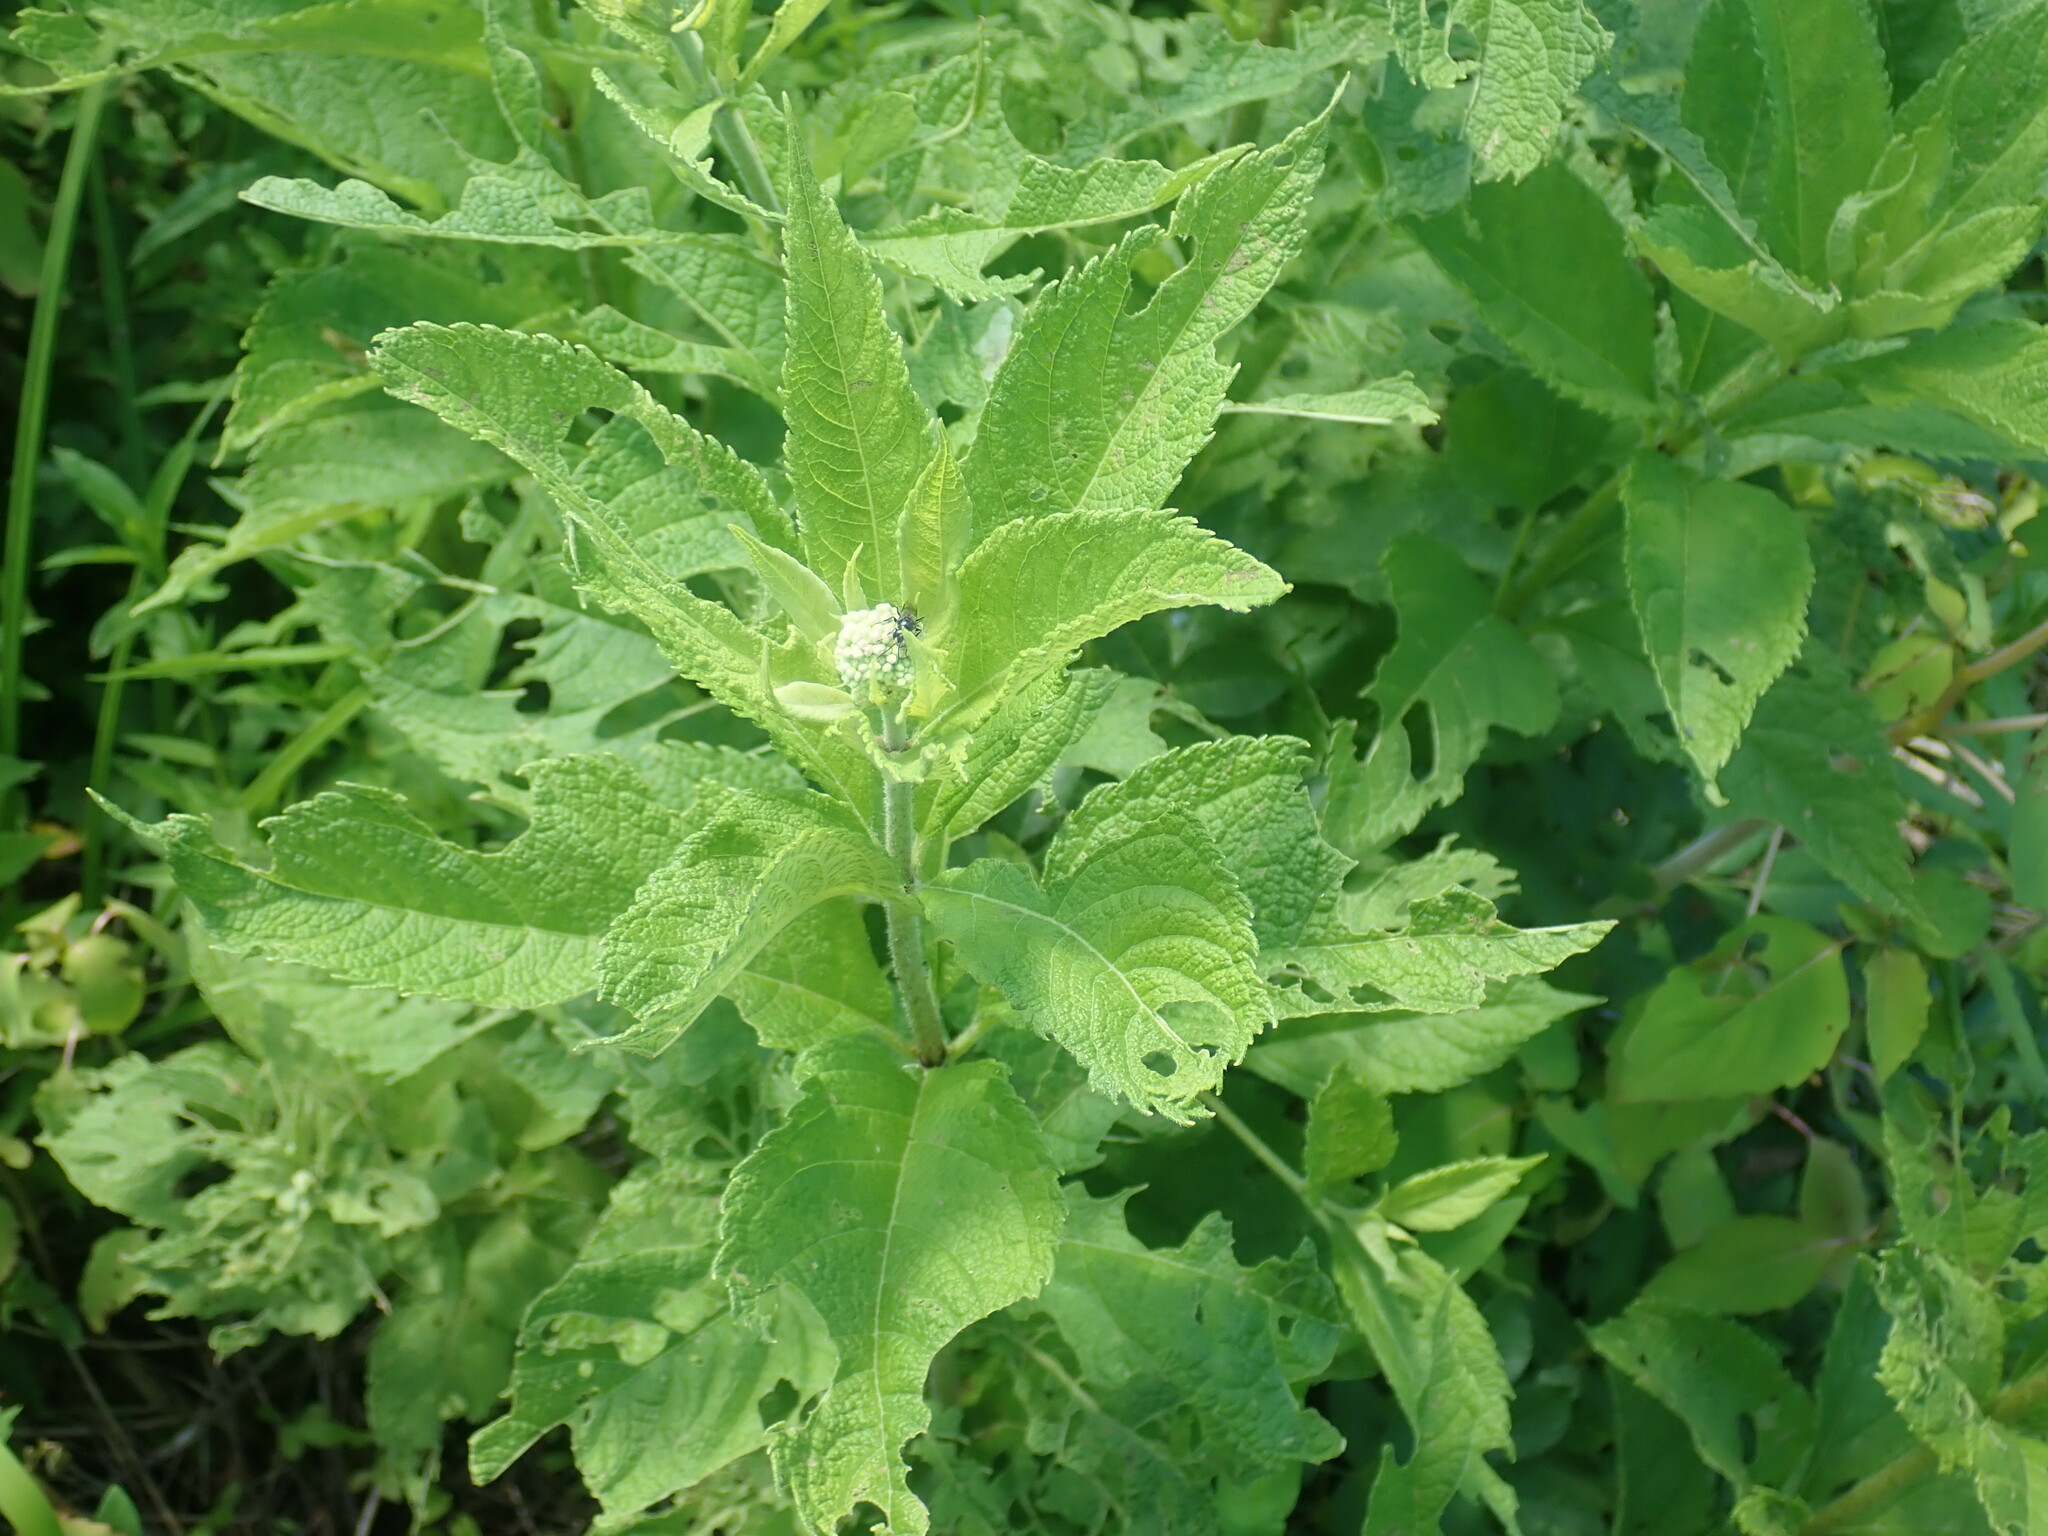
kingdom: Plantae
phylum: Tracheophyta
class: Magnoliopsida
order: Asterales
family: Asteraceae
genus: Eutrochium
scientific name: Eutrochium
